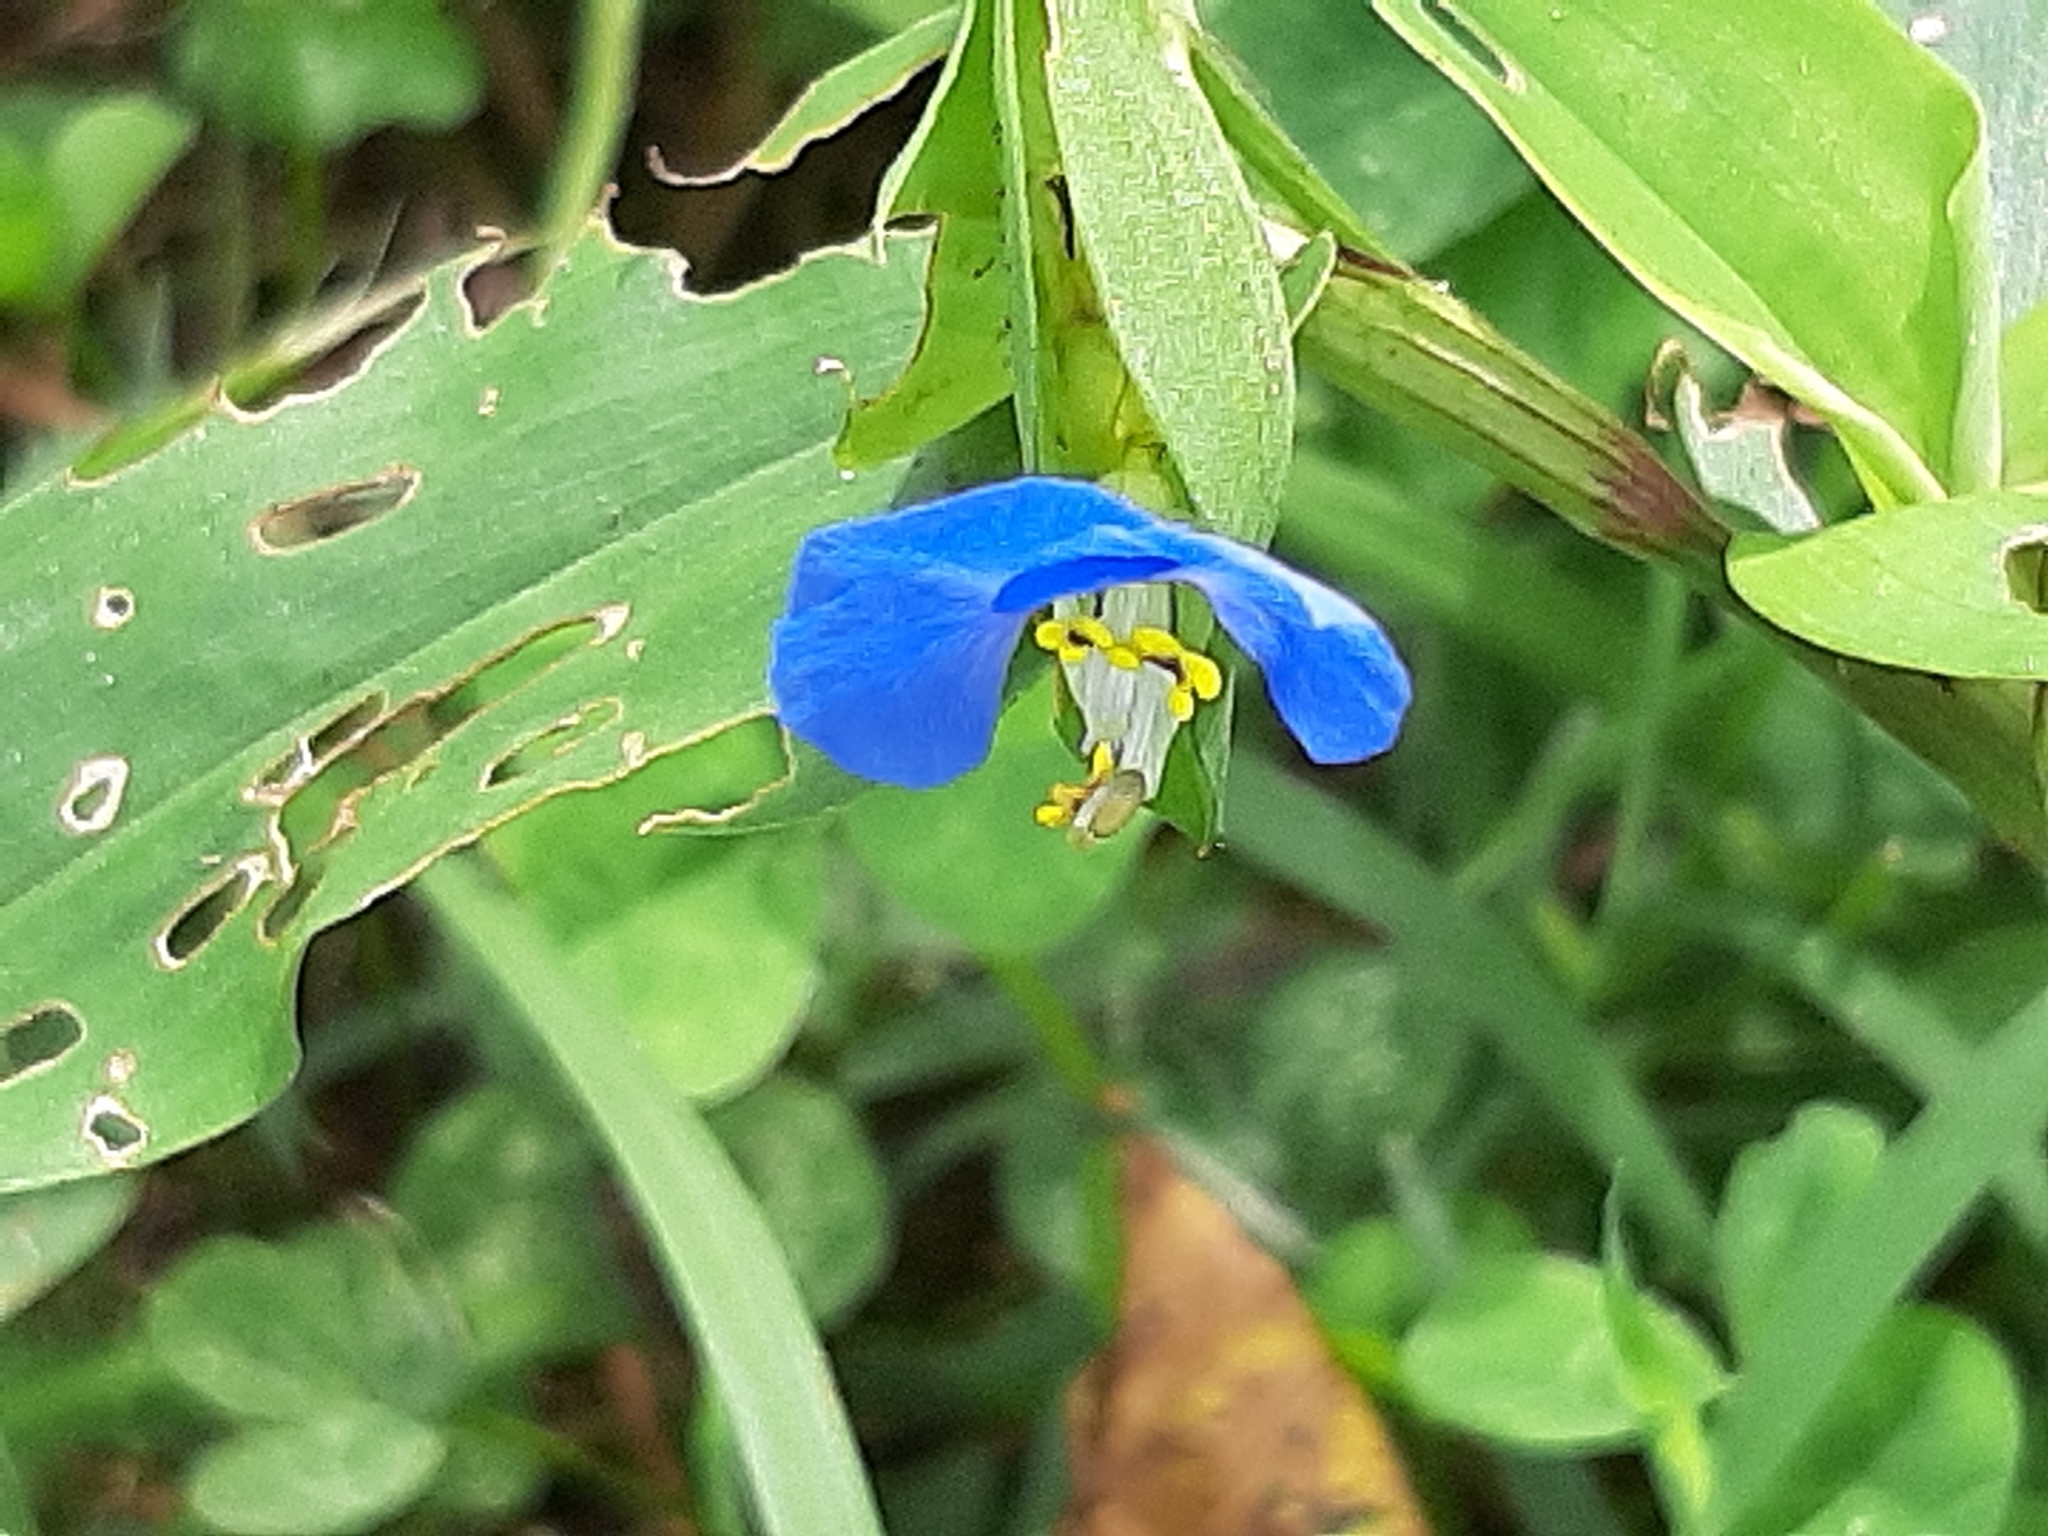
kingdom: Plantae
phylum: Tracheophyta
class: Liliopsida
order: Commelinales
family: Commelinaceae
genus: Commelina
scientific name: Commelina communis
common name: Asiatic dayflower
